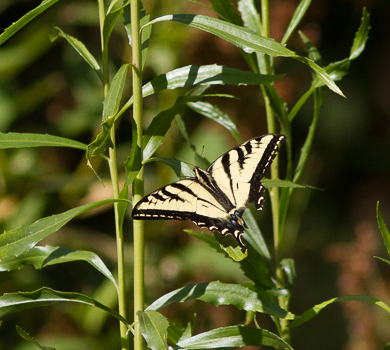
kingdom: Animalia
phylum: Arthropoda
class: Insecta
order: Lepidoptera
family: Papilionidae
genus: Papilio
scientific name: Papilio rutulus
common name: Western tiger swallowtail
